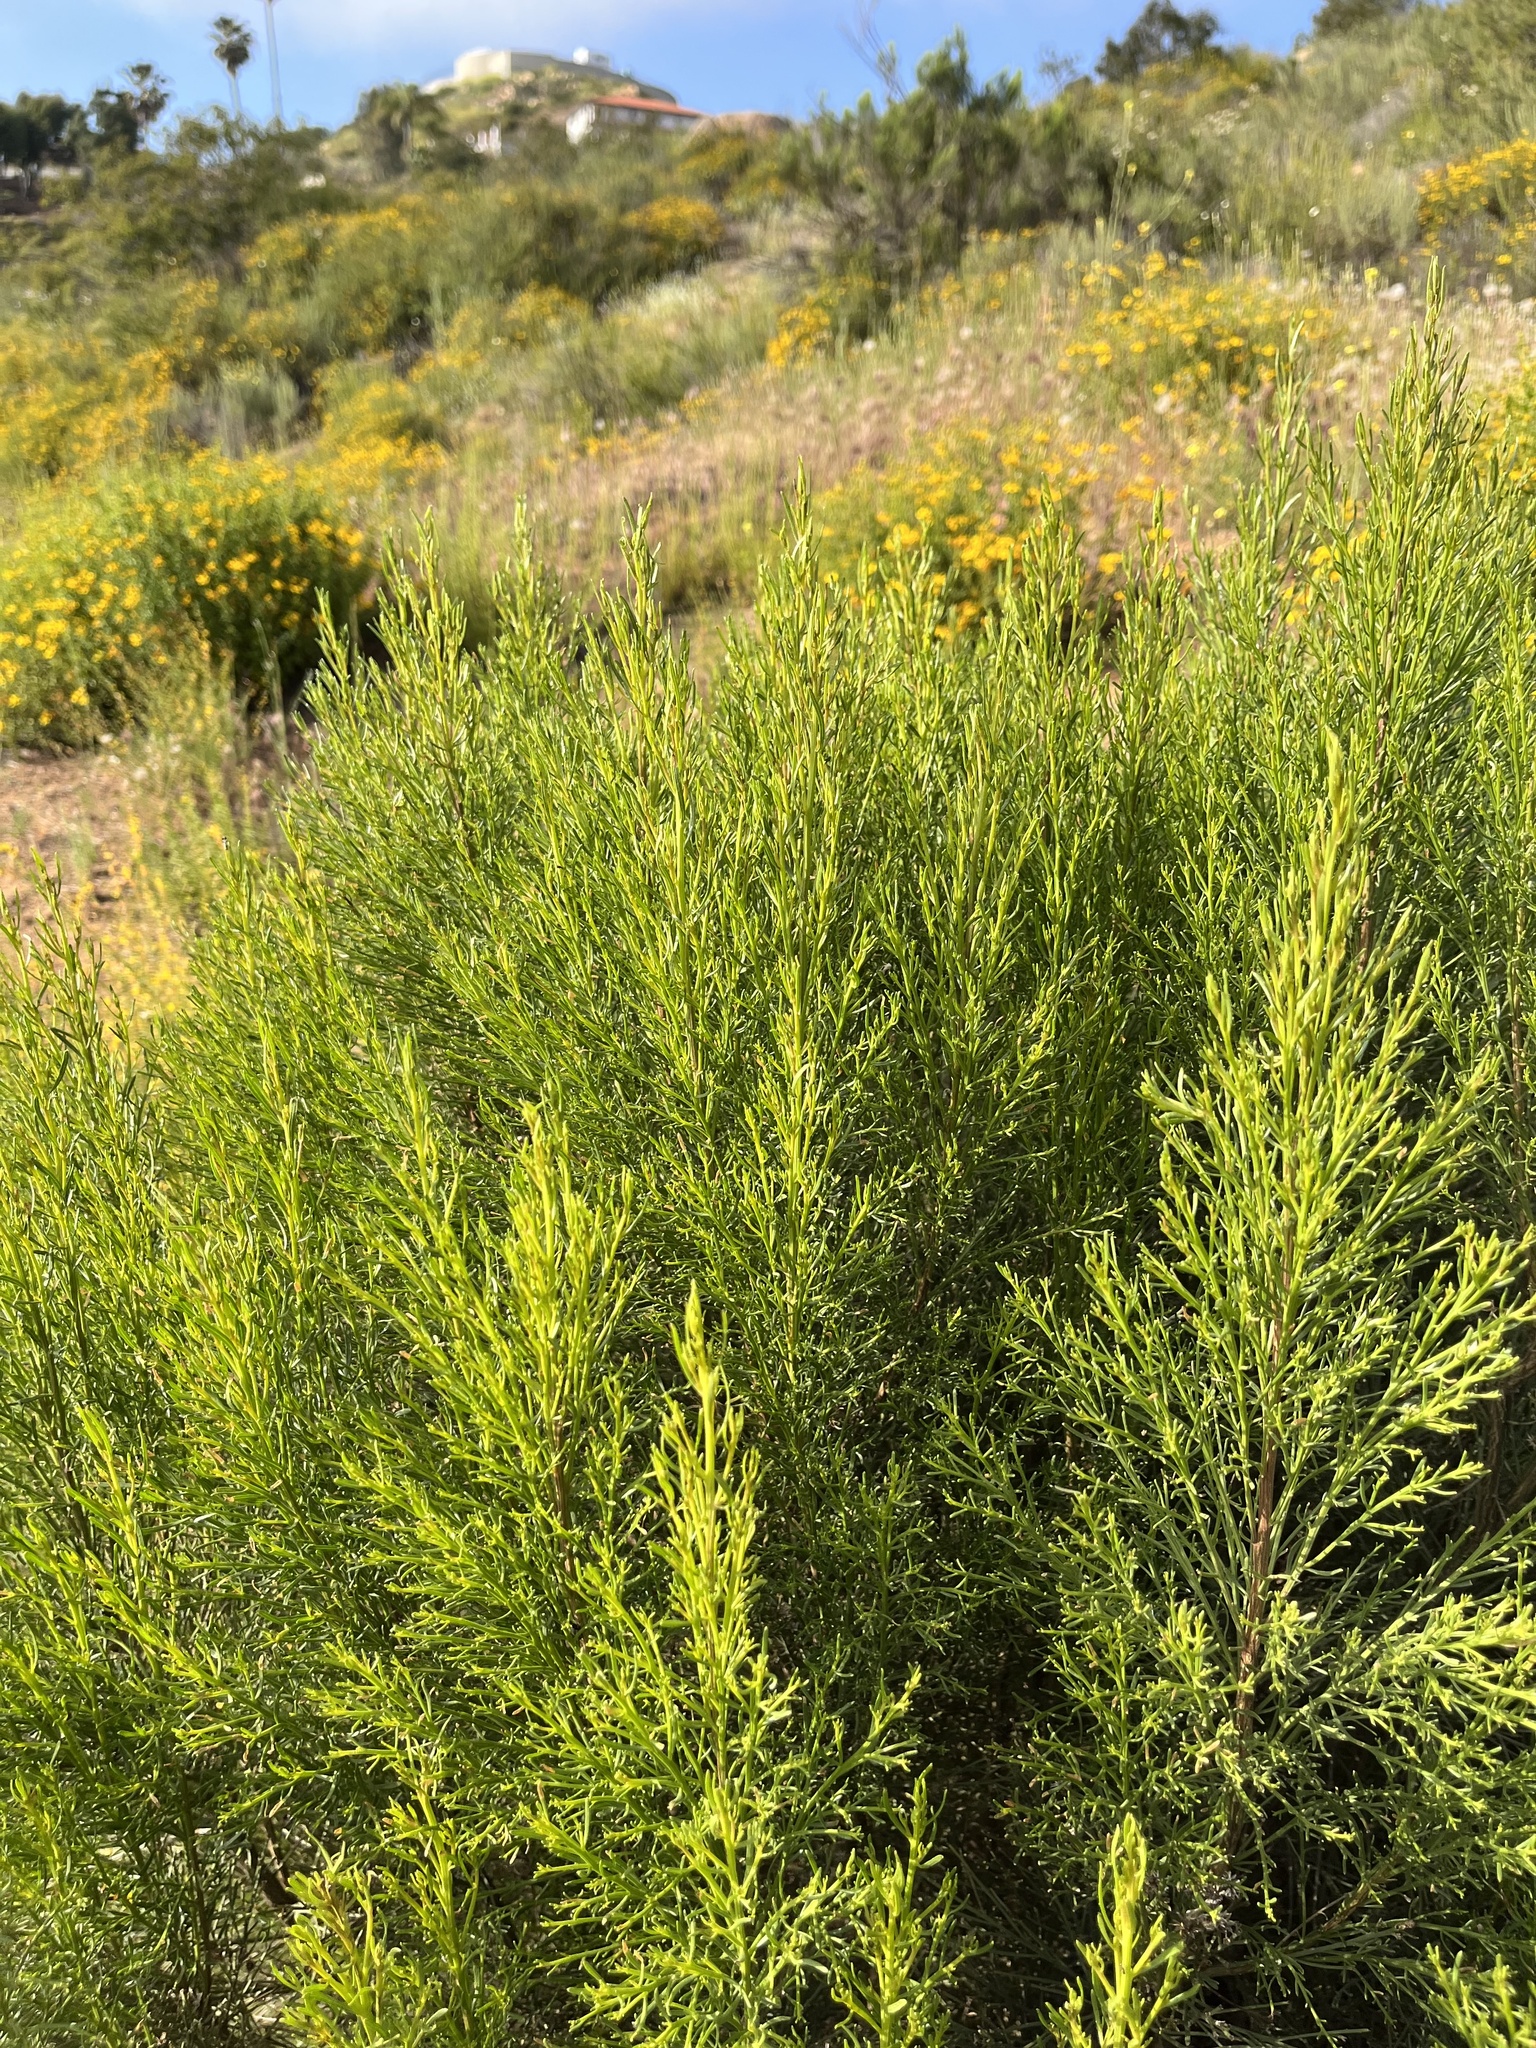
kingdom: Plantae
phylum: Tracheophyta
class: Magnoliopsida
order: Asterales
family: Asteraceae
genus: Baccharis
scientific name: Baccharis sarothroides
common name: Desert-broom
